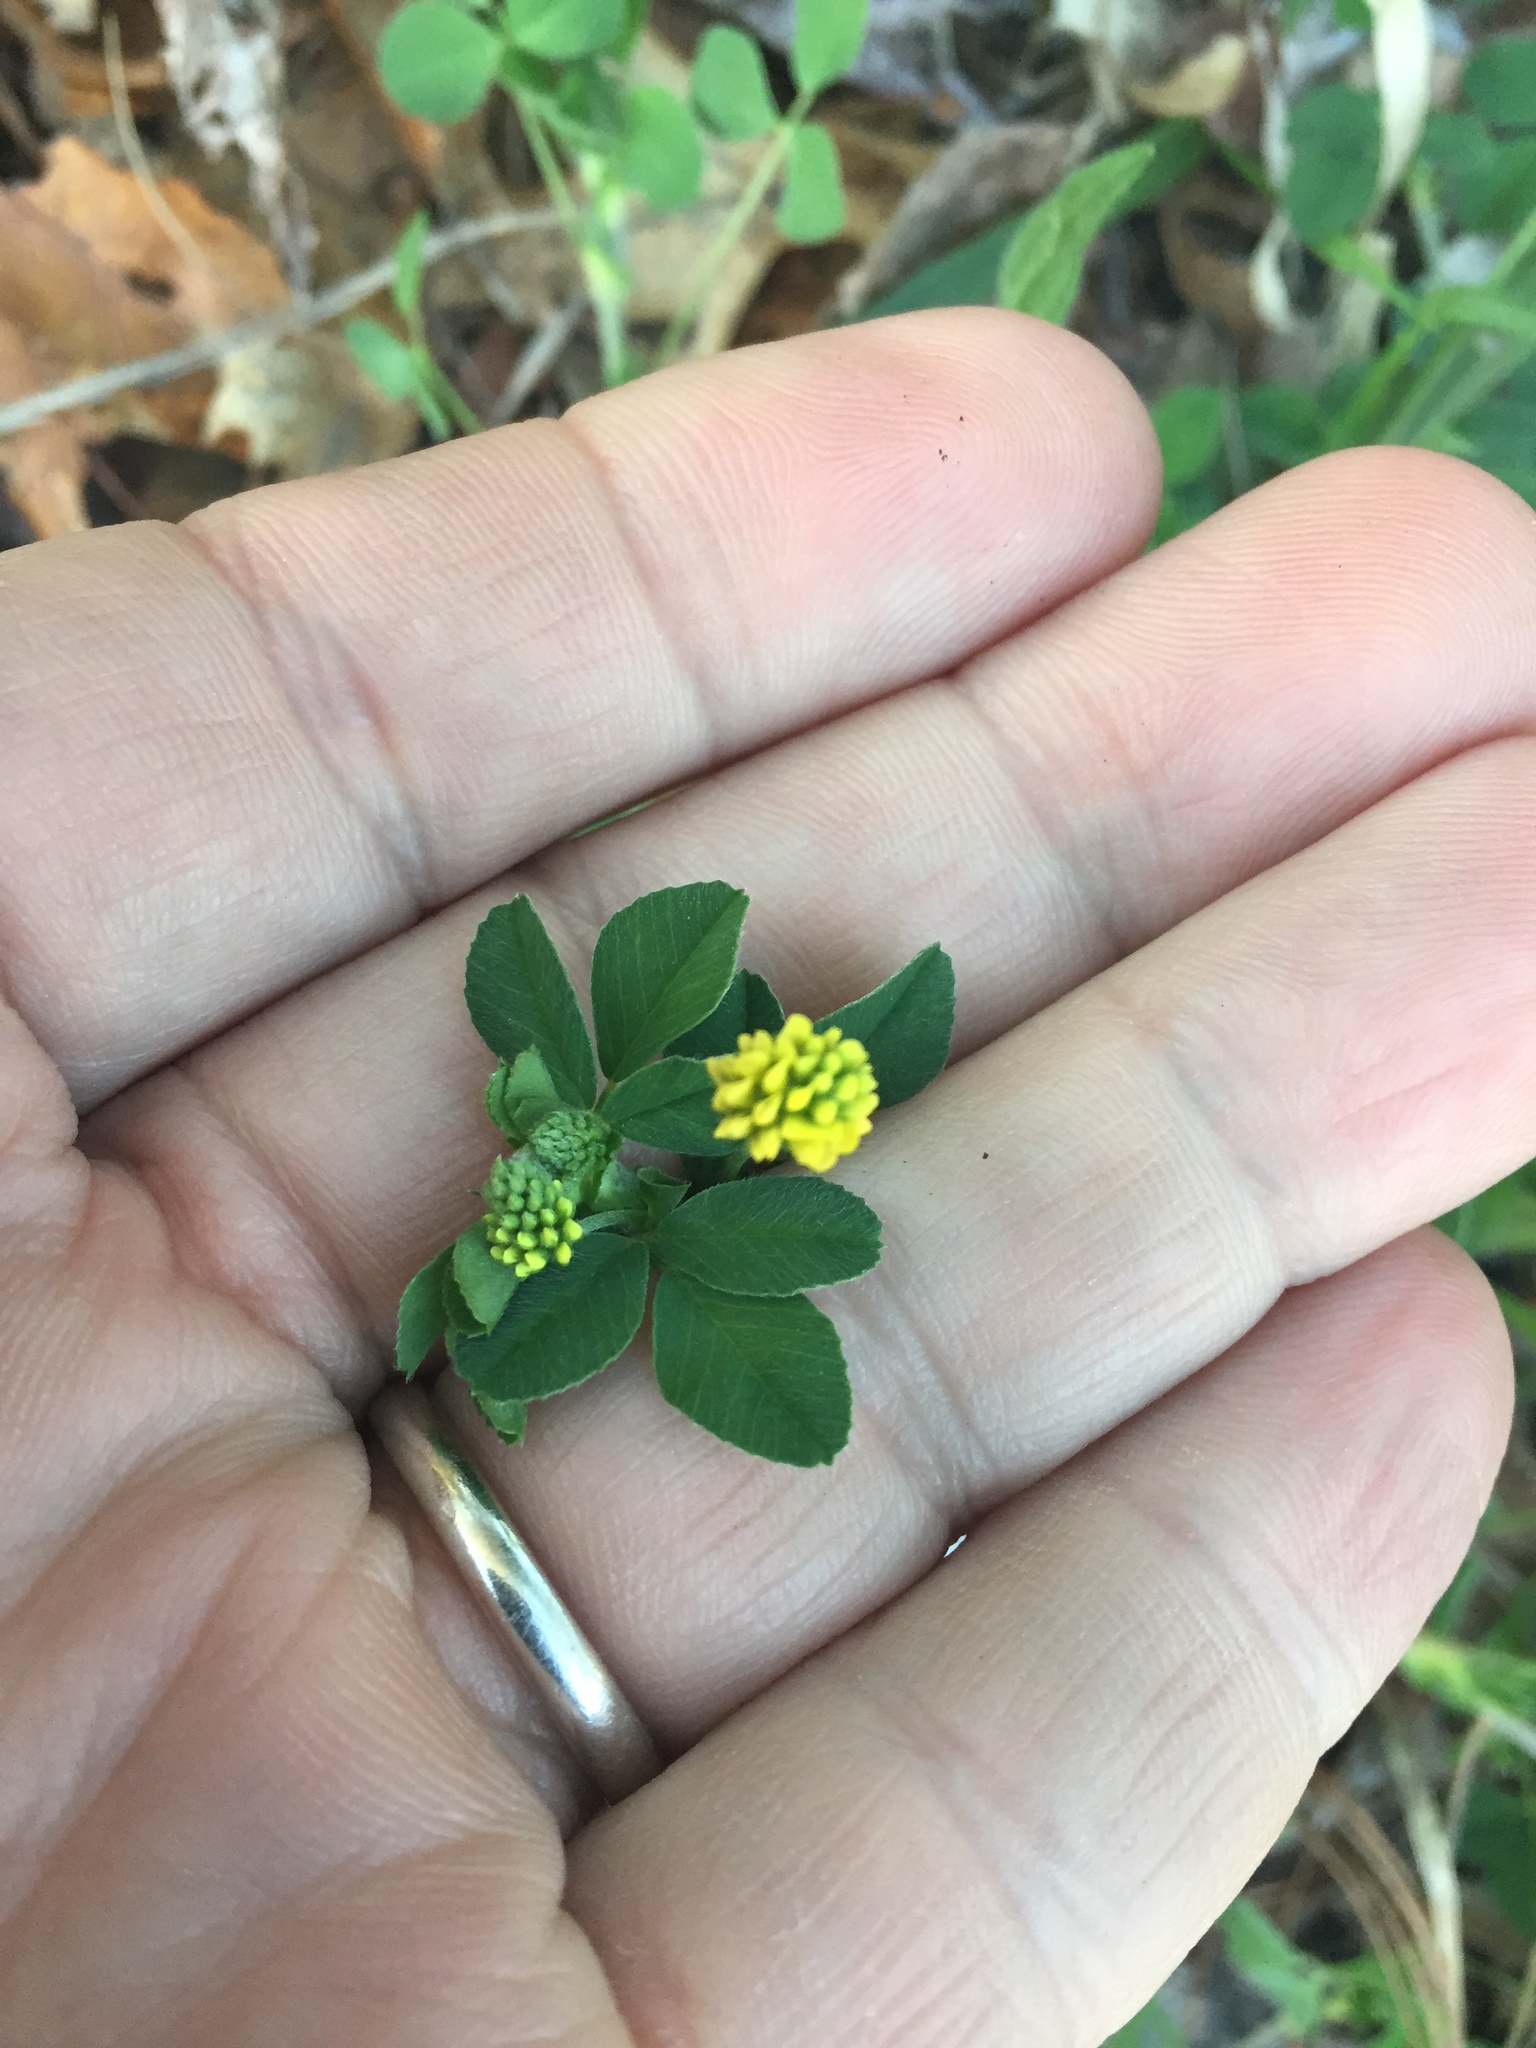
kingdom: Plantae
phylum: Tracheophyta
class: Magnoliopsida
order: Fabales
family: Fabaceae
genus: Medicago
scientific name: Medicago lupulina
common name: Black medick
